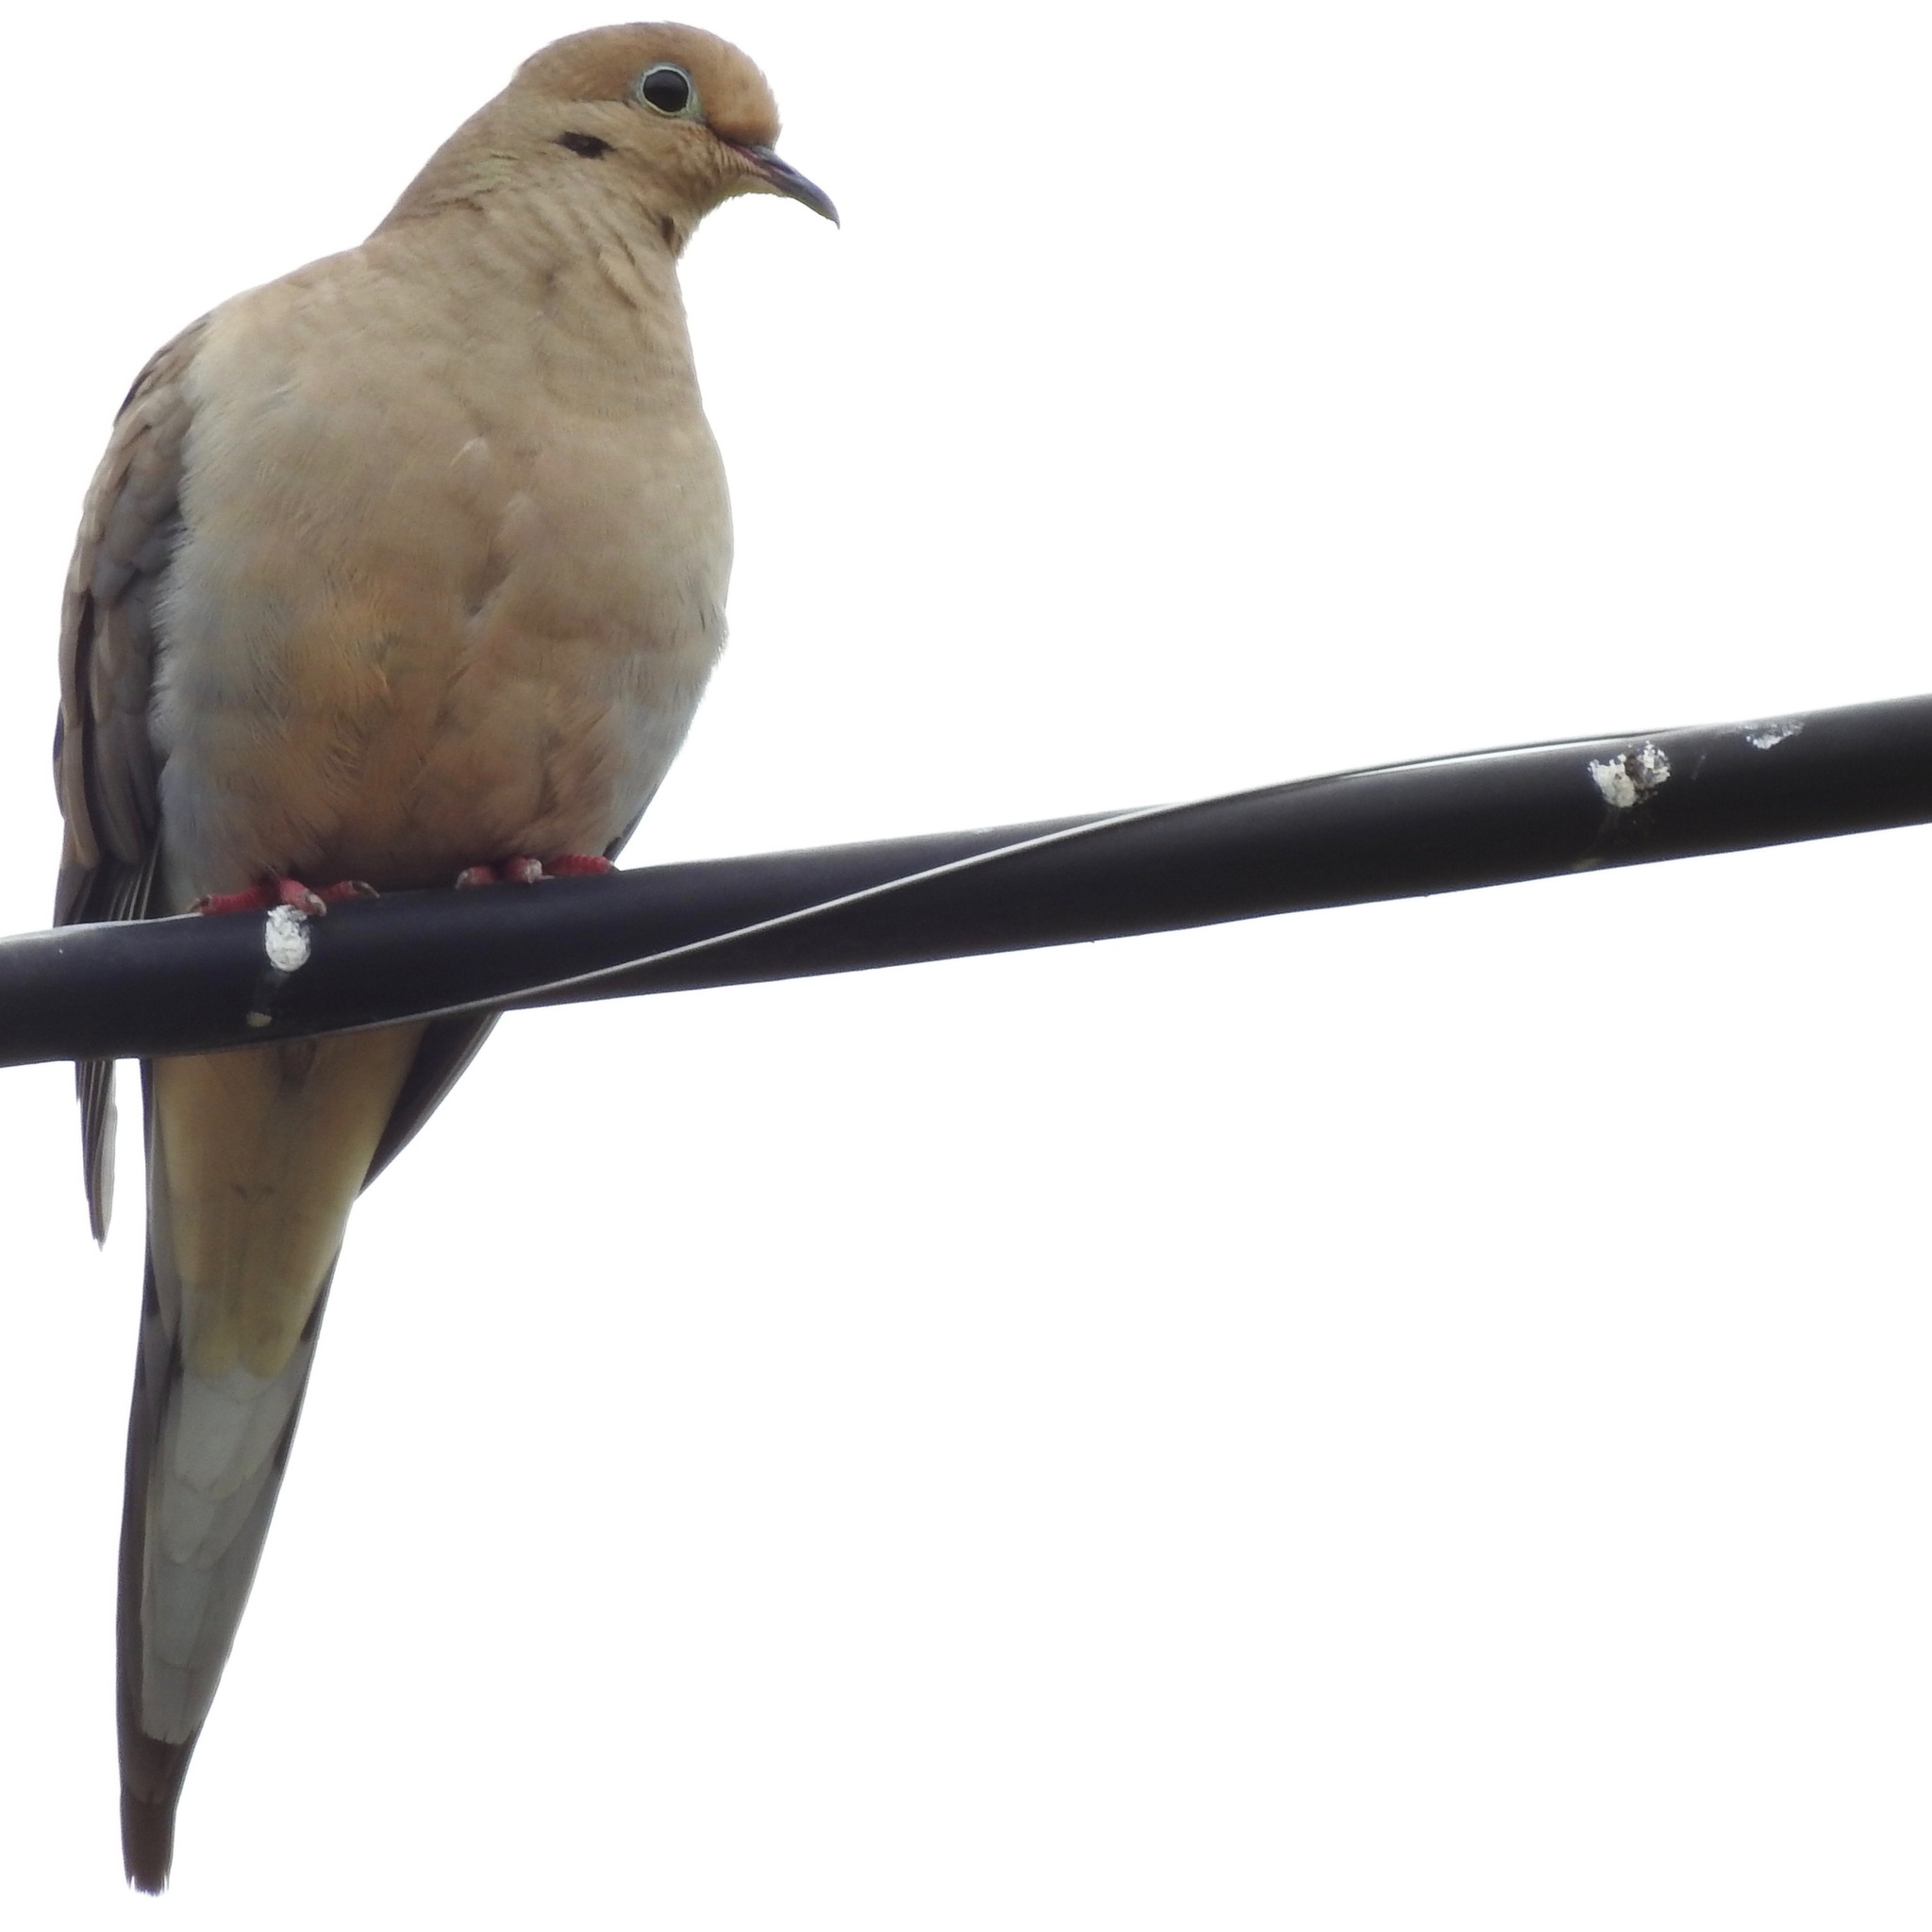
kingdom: Animalia
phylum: Chordata
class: Aves
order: Columbiformes
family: Columbidae
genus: Zenaida
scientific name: Zenaida macroura
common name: Mourning dove
